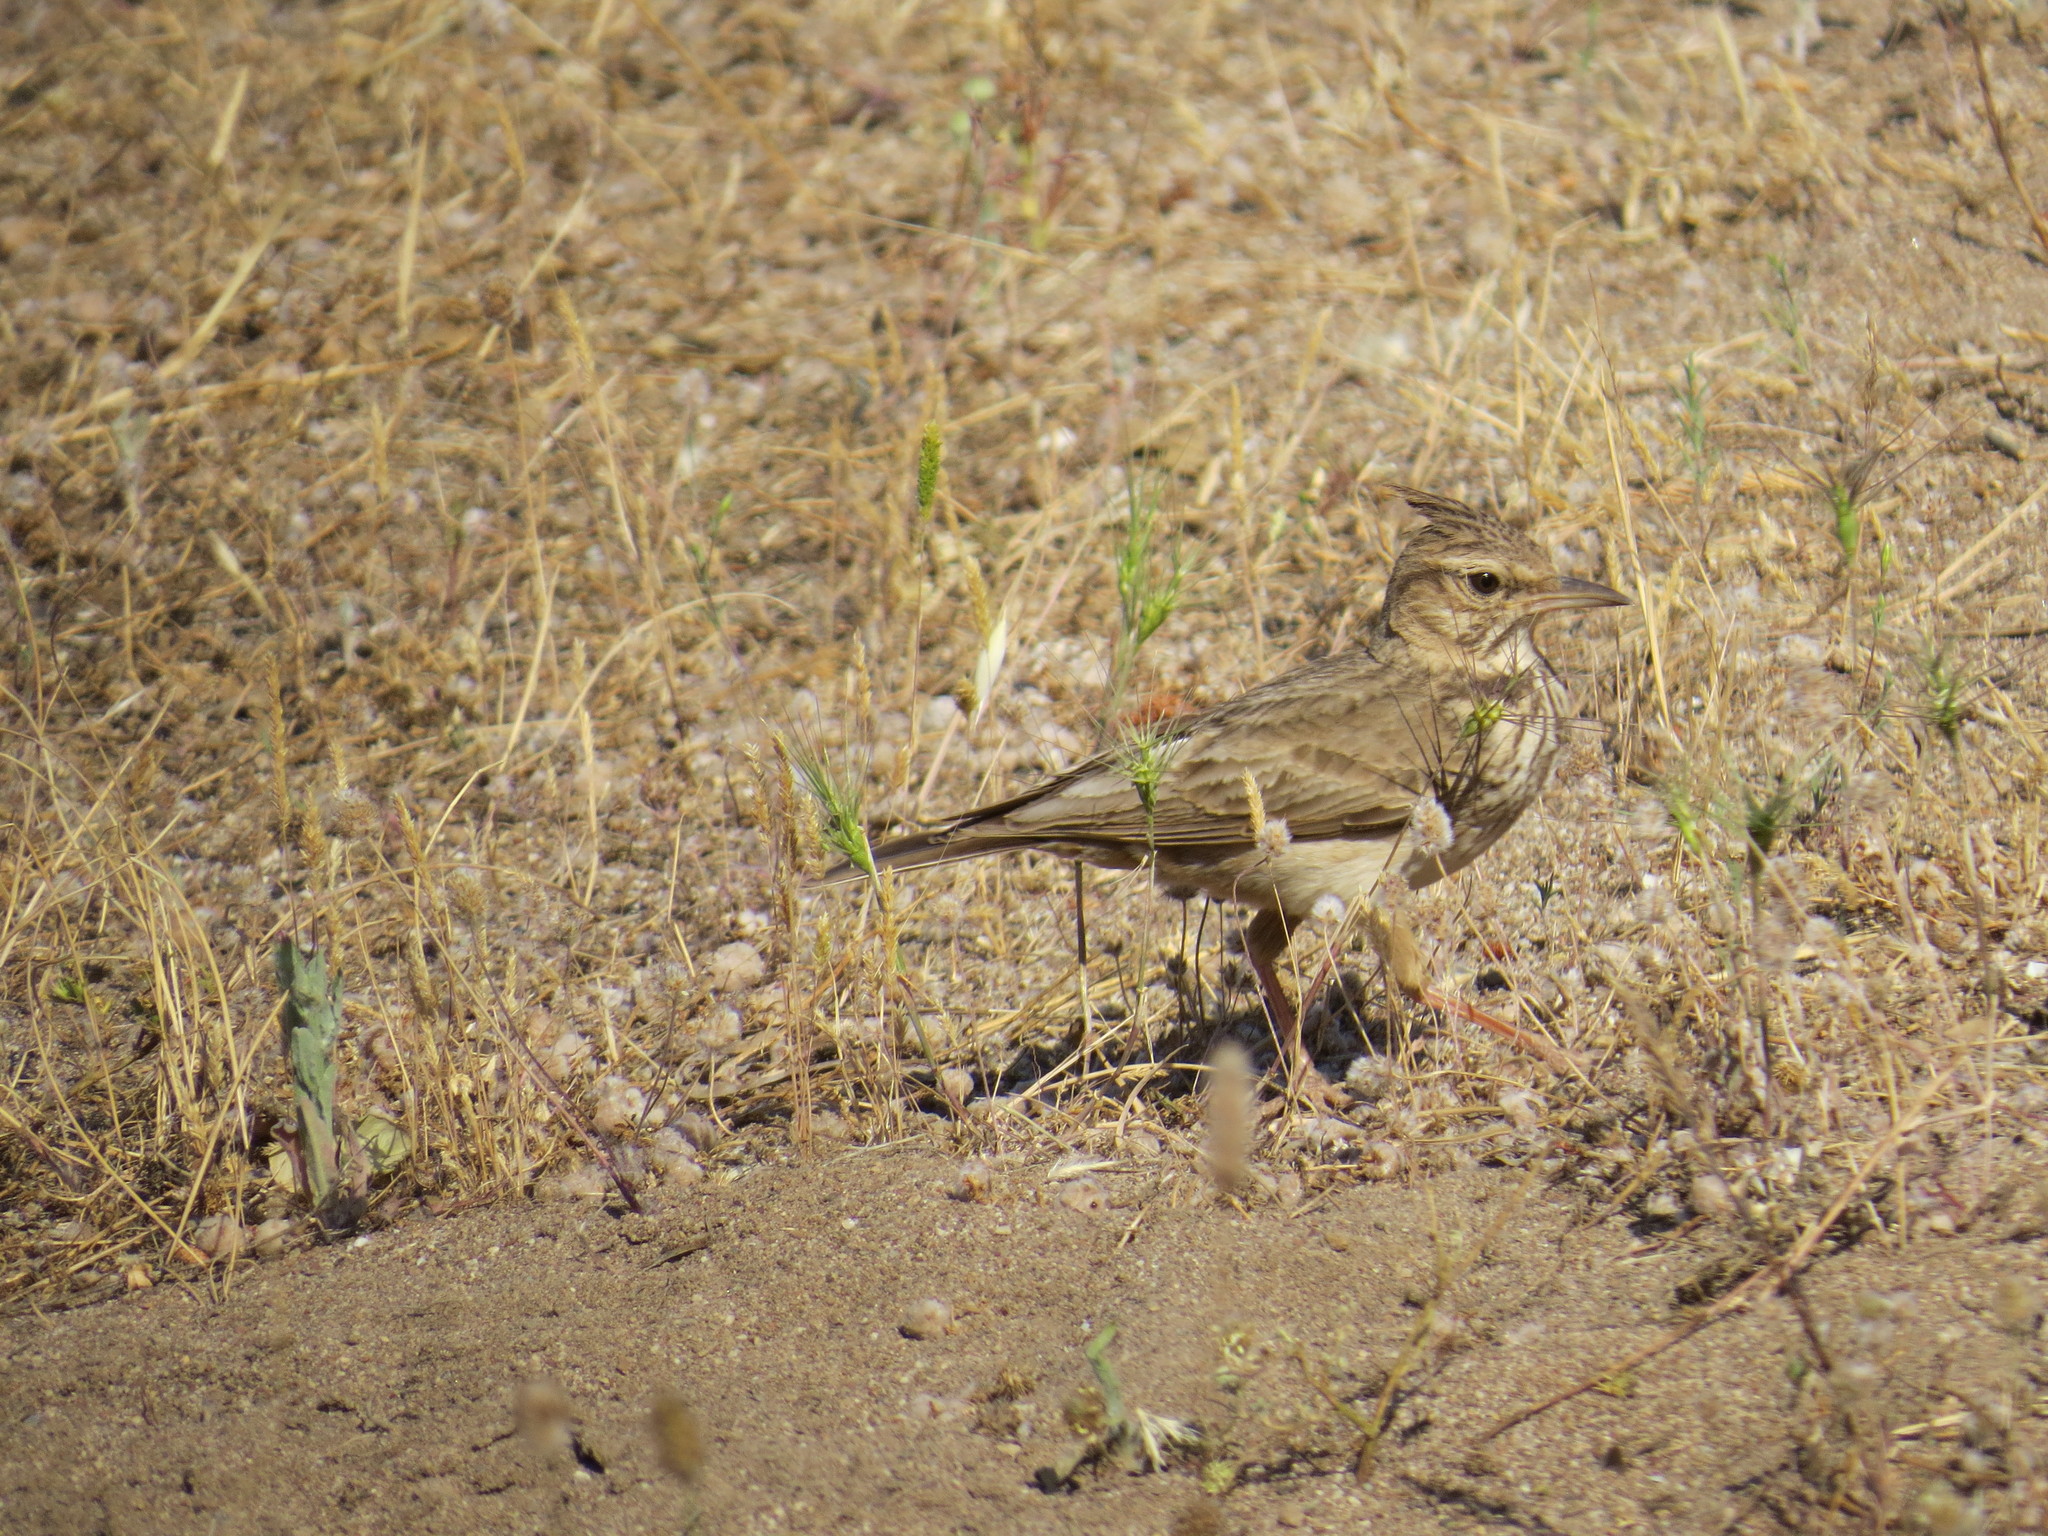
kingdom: Animalia
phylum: Chordata
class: Aves
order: Passeriformes
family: Alaudidae
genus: Galerida
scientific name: Galerida cristata
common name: Crested lark
